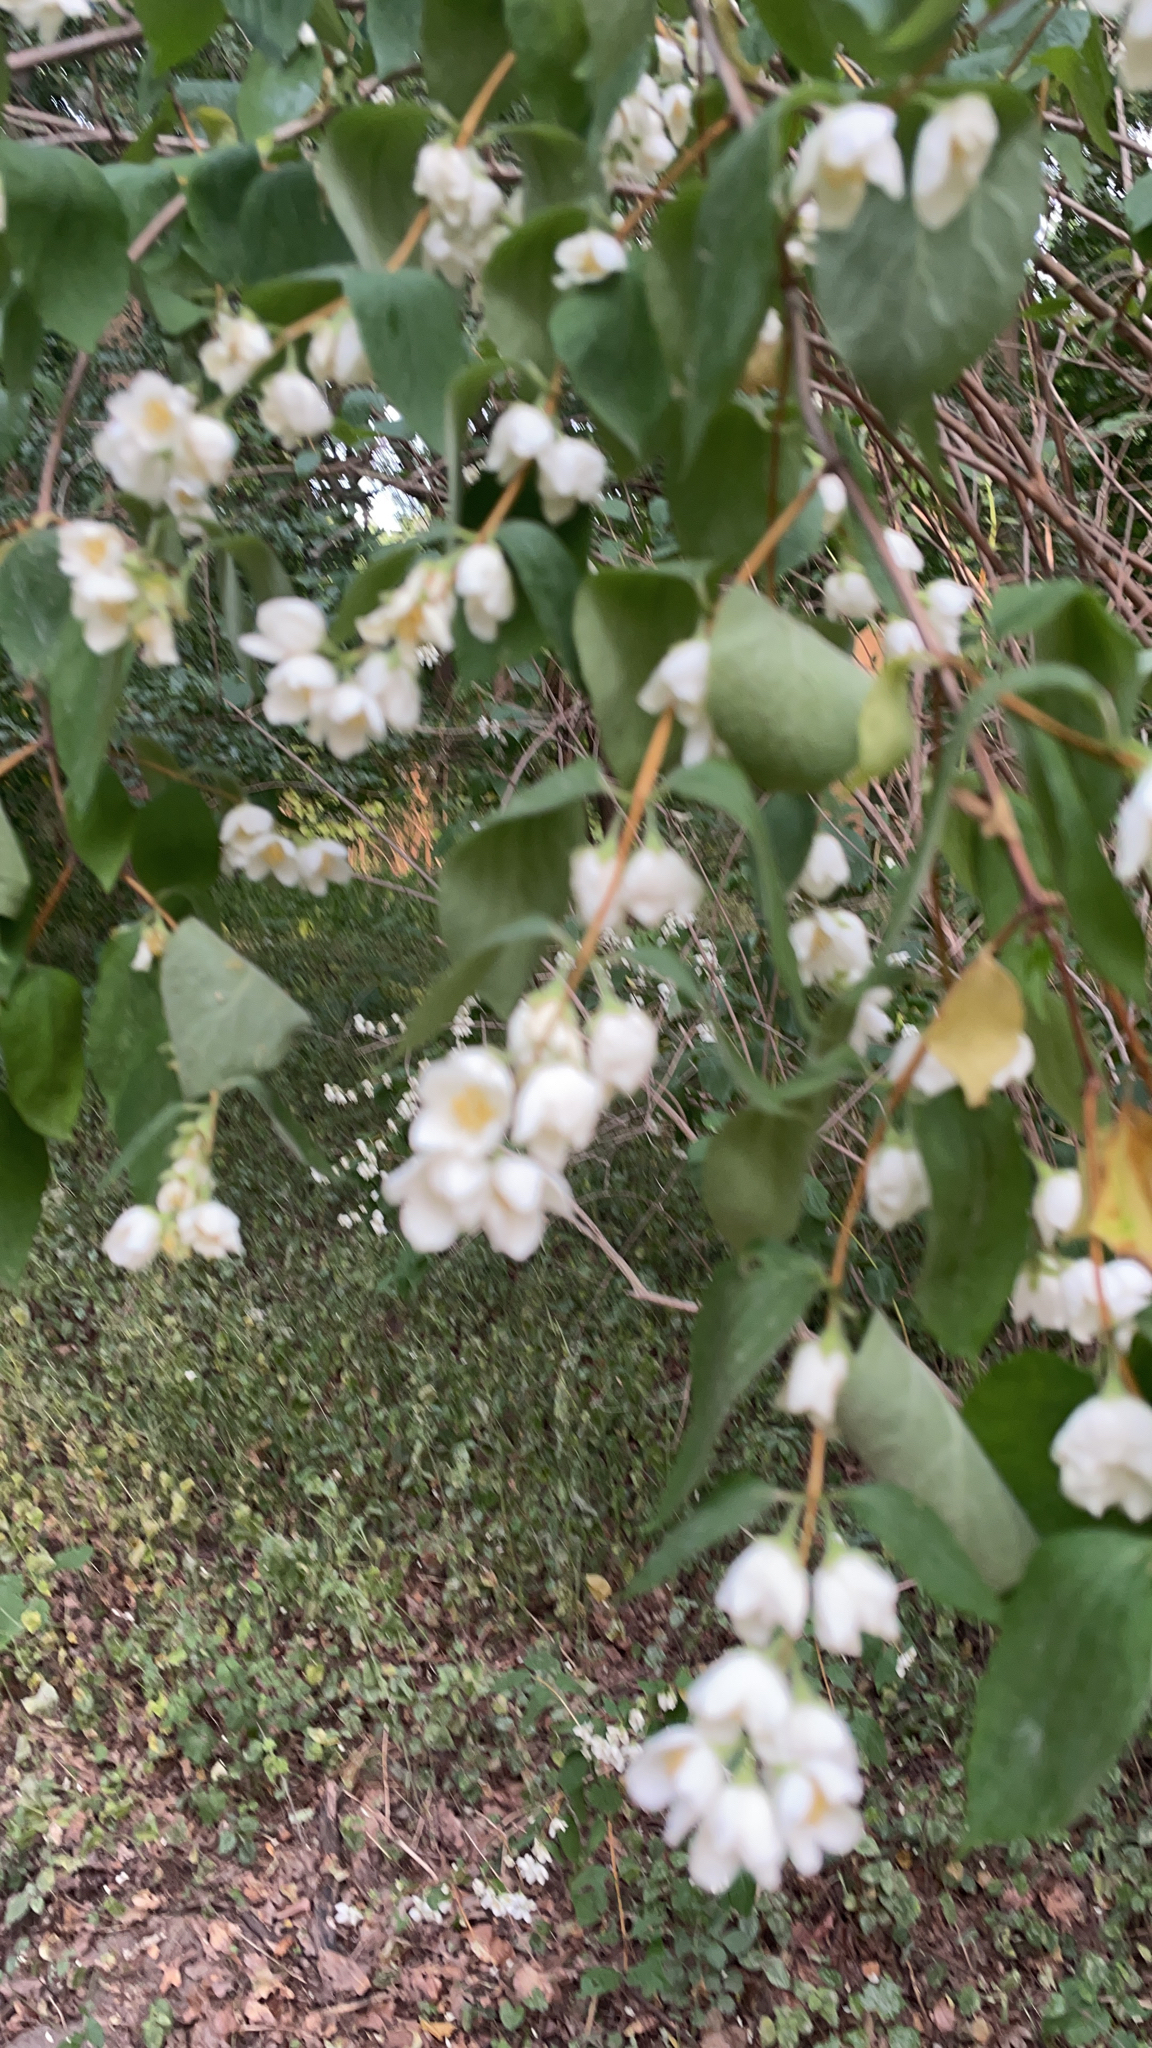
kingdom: Plantae
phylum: Tracheophyta
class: Magnoliopsida
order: Cornales
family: Hydrangeaceae
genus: Philadelphus
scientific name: Philadelphus coronarius
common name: Mock orange
